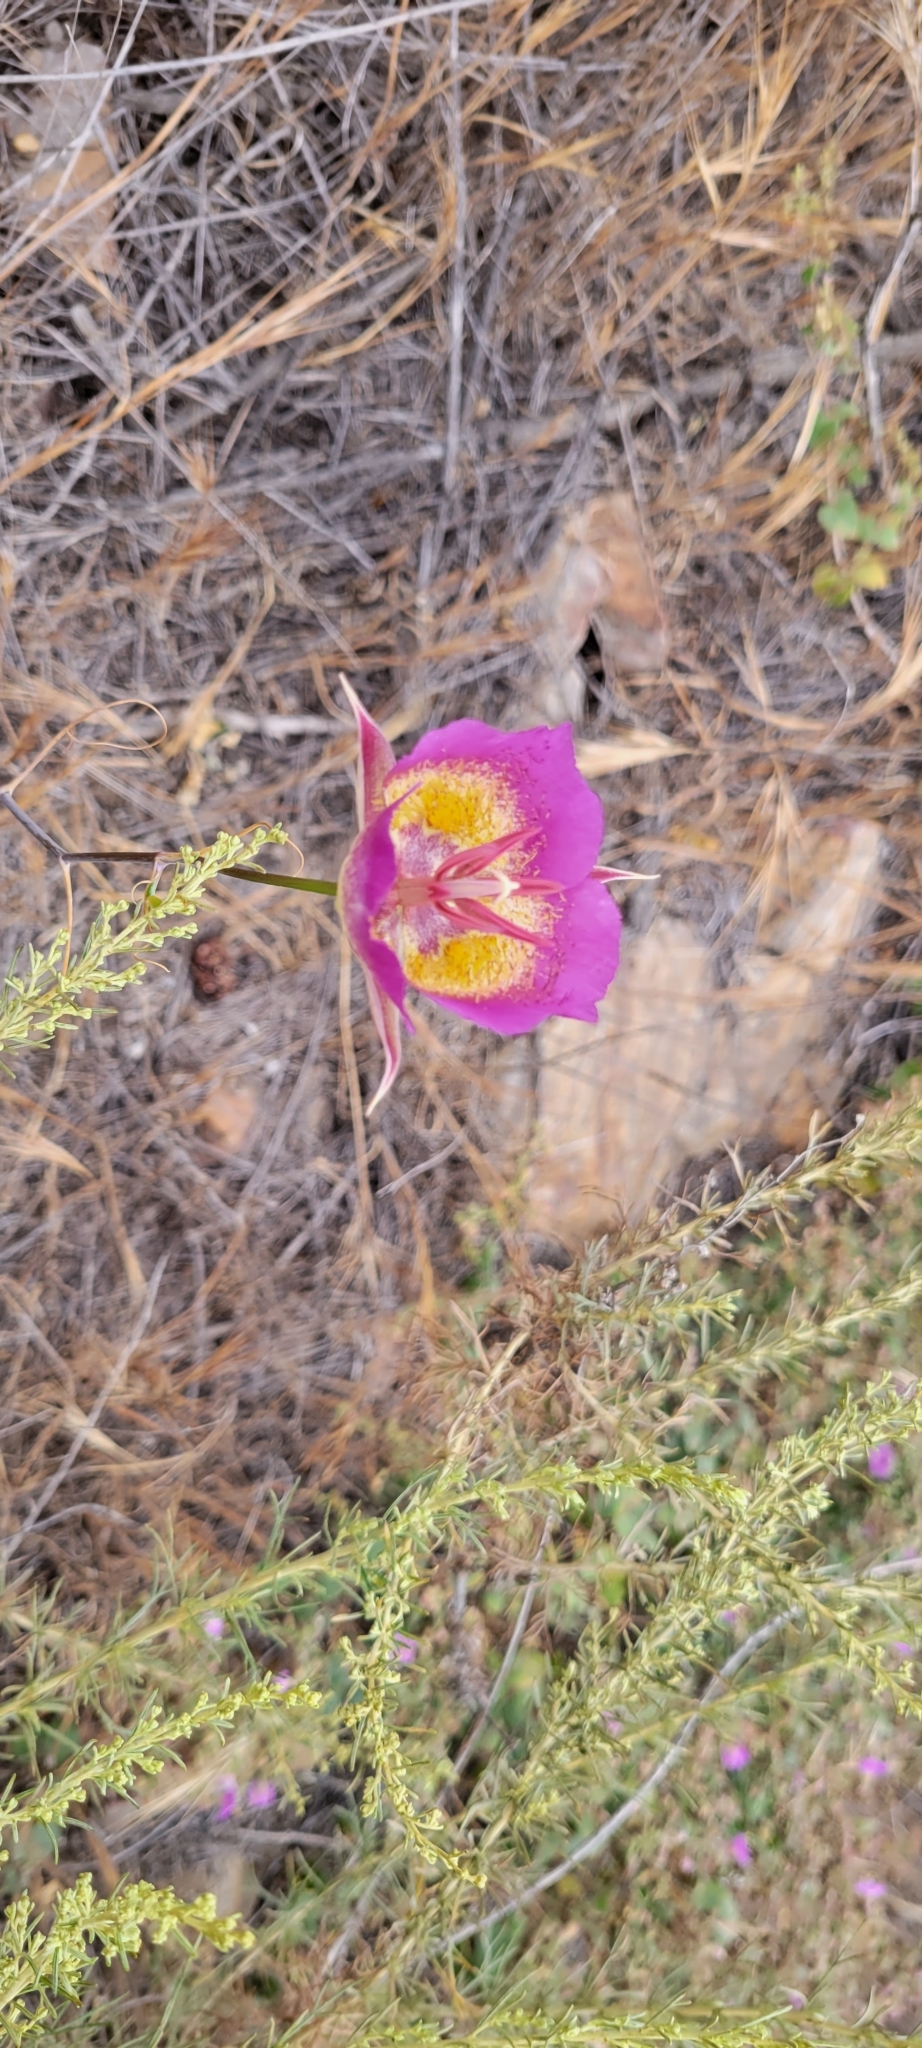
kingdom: Plantae
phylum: Tracheophyta
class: Liliopsida
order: Liliales
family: Liliaceae
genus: Calochortus
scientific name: Calochortus plummerae
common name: Plummer's mariposa-lily
